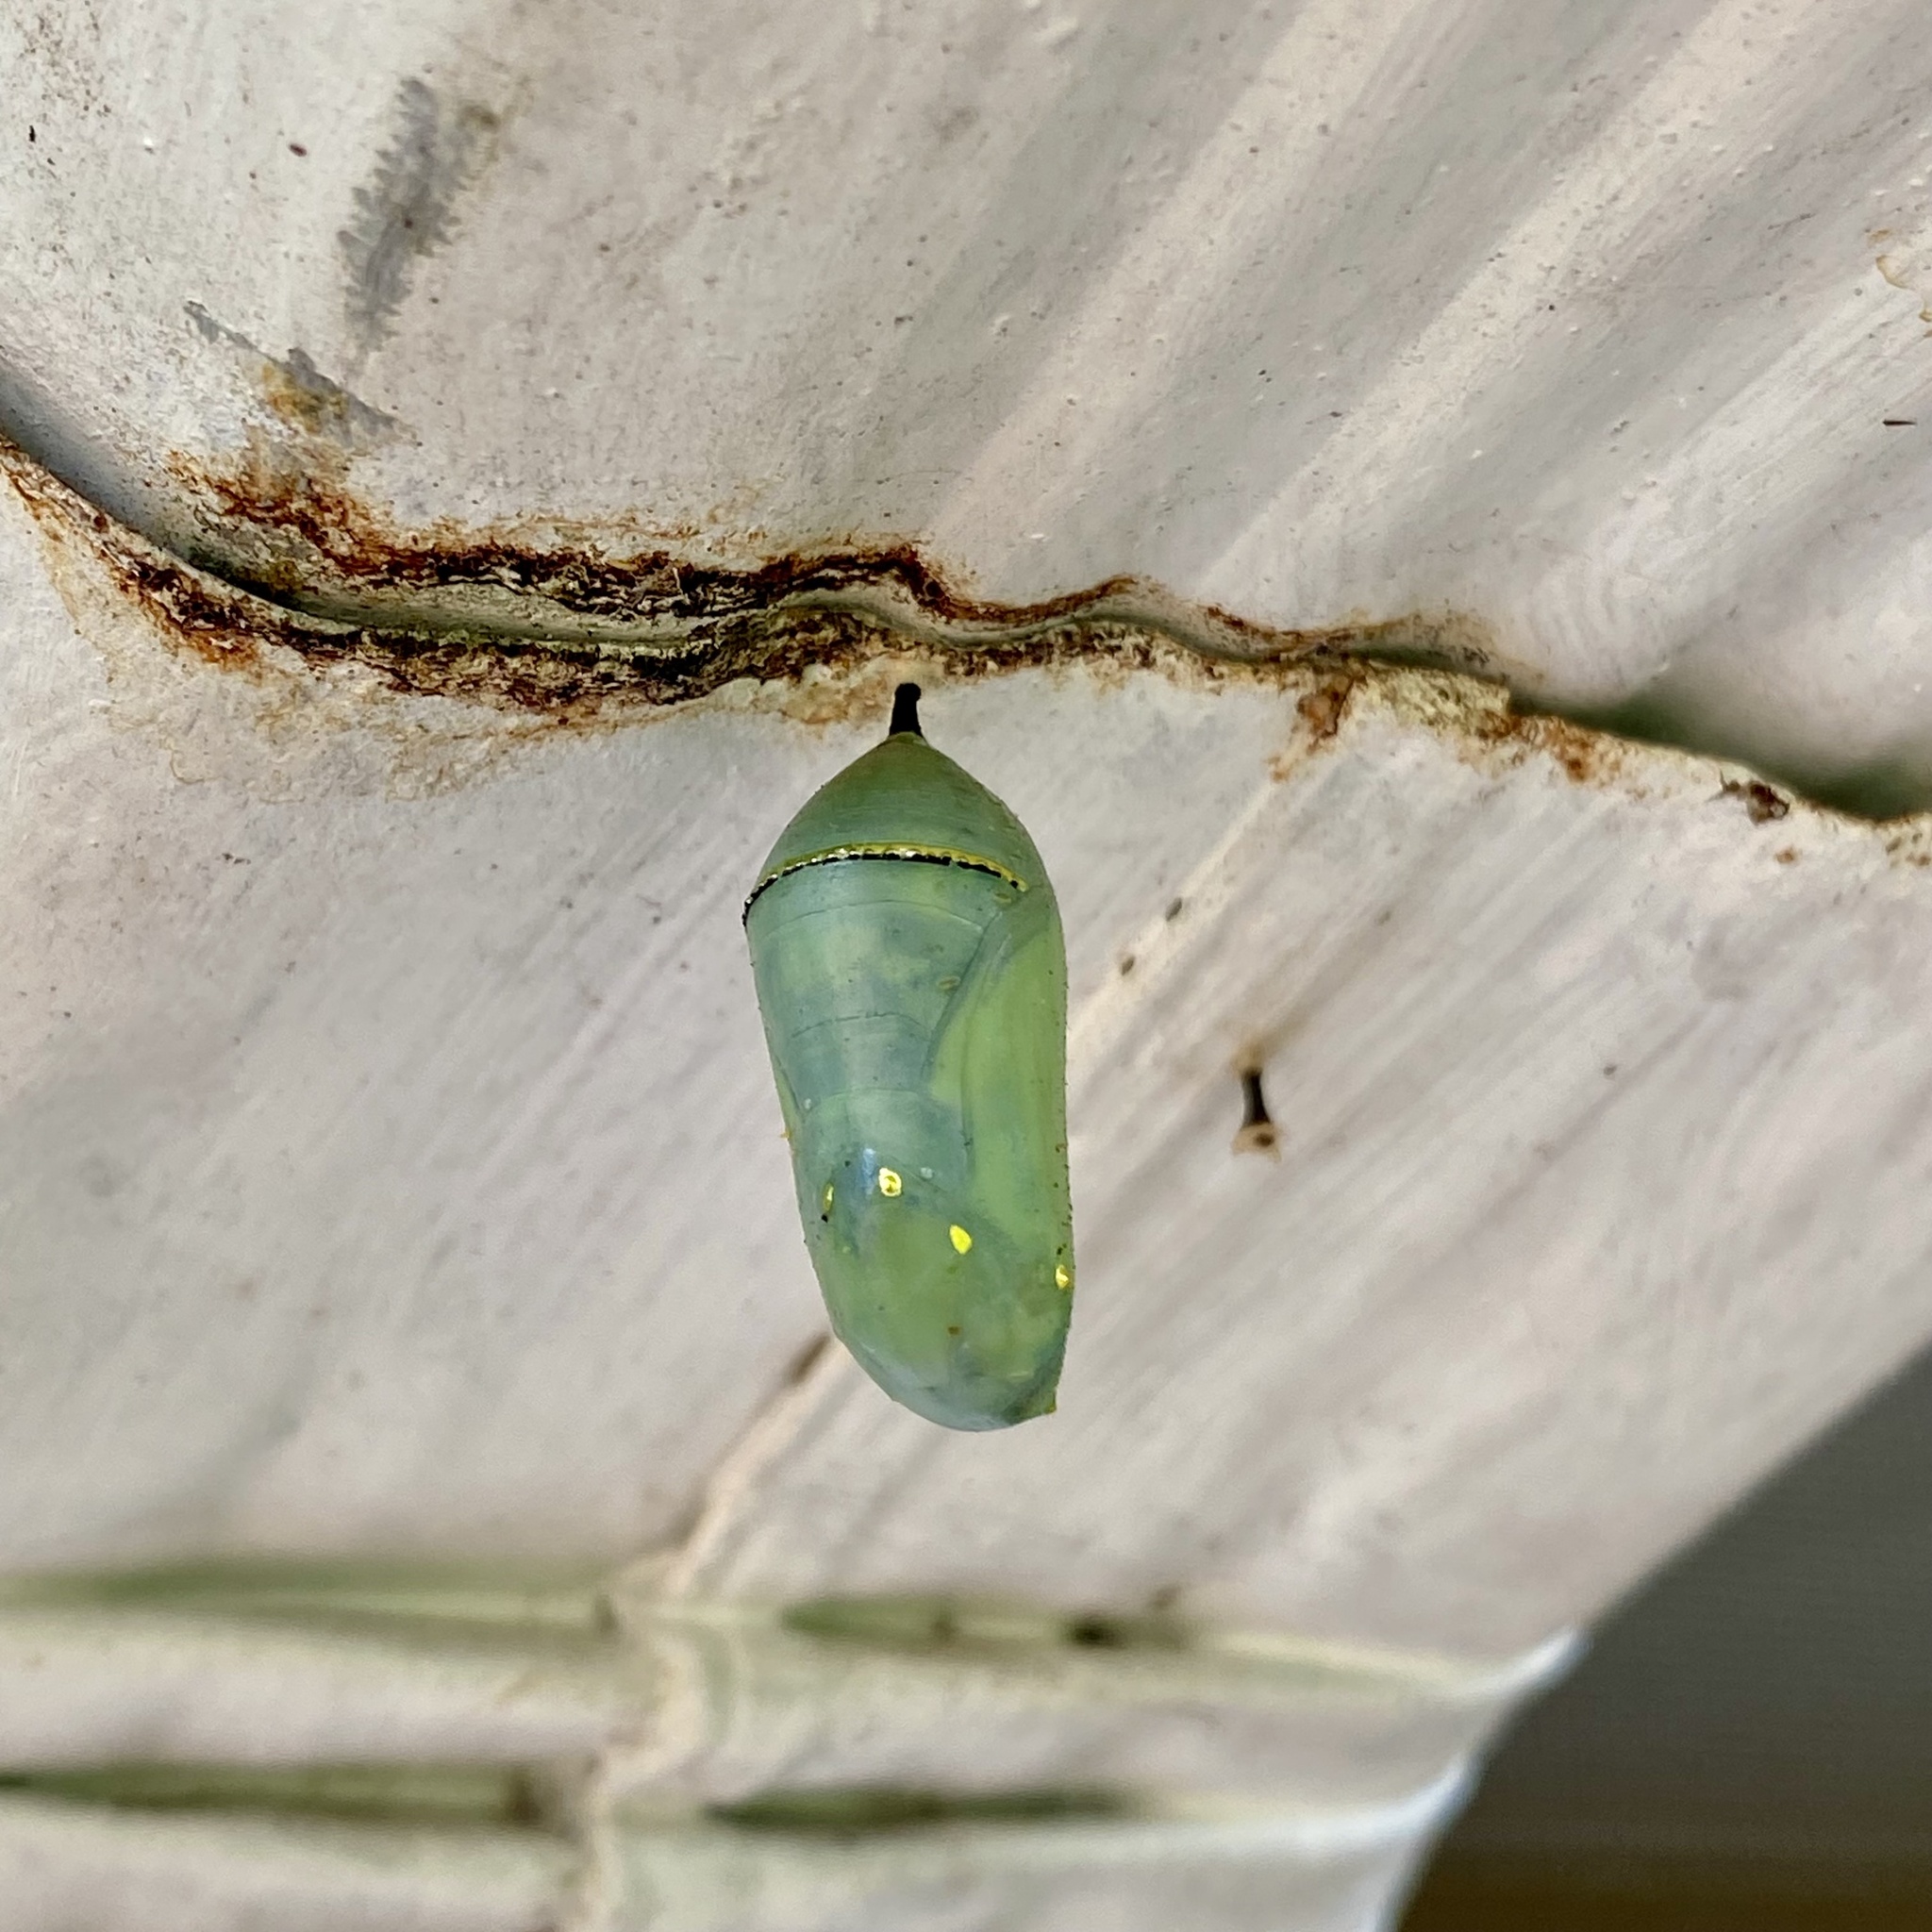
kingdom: Animalia
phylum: Arthropoda
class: Insecta
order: Lepidoptera
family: Nymphalidae
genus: Danaus
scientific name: Danaus plexippus
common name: Monarch
